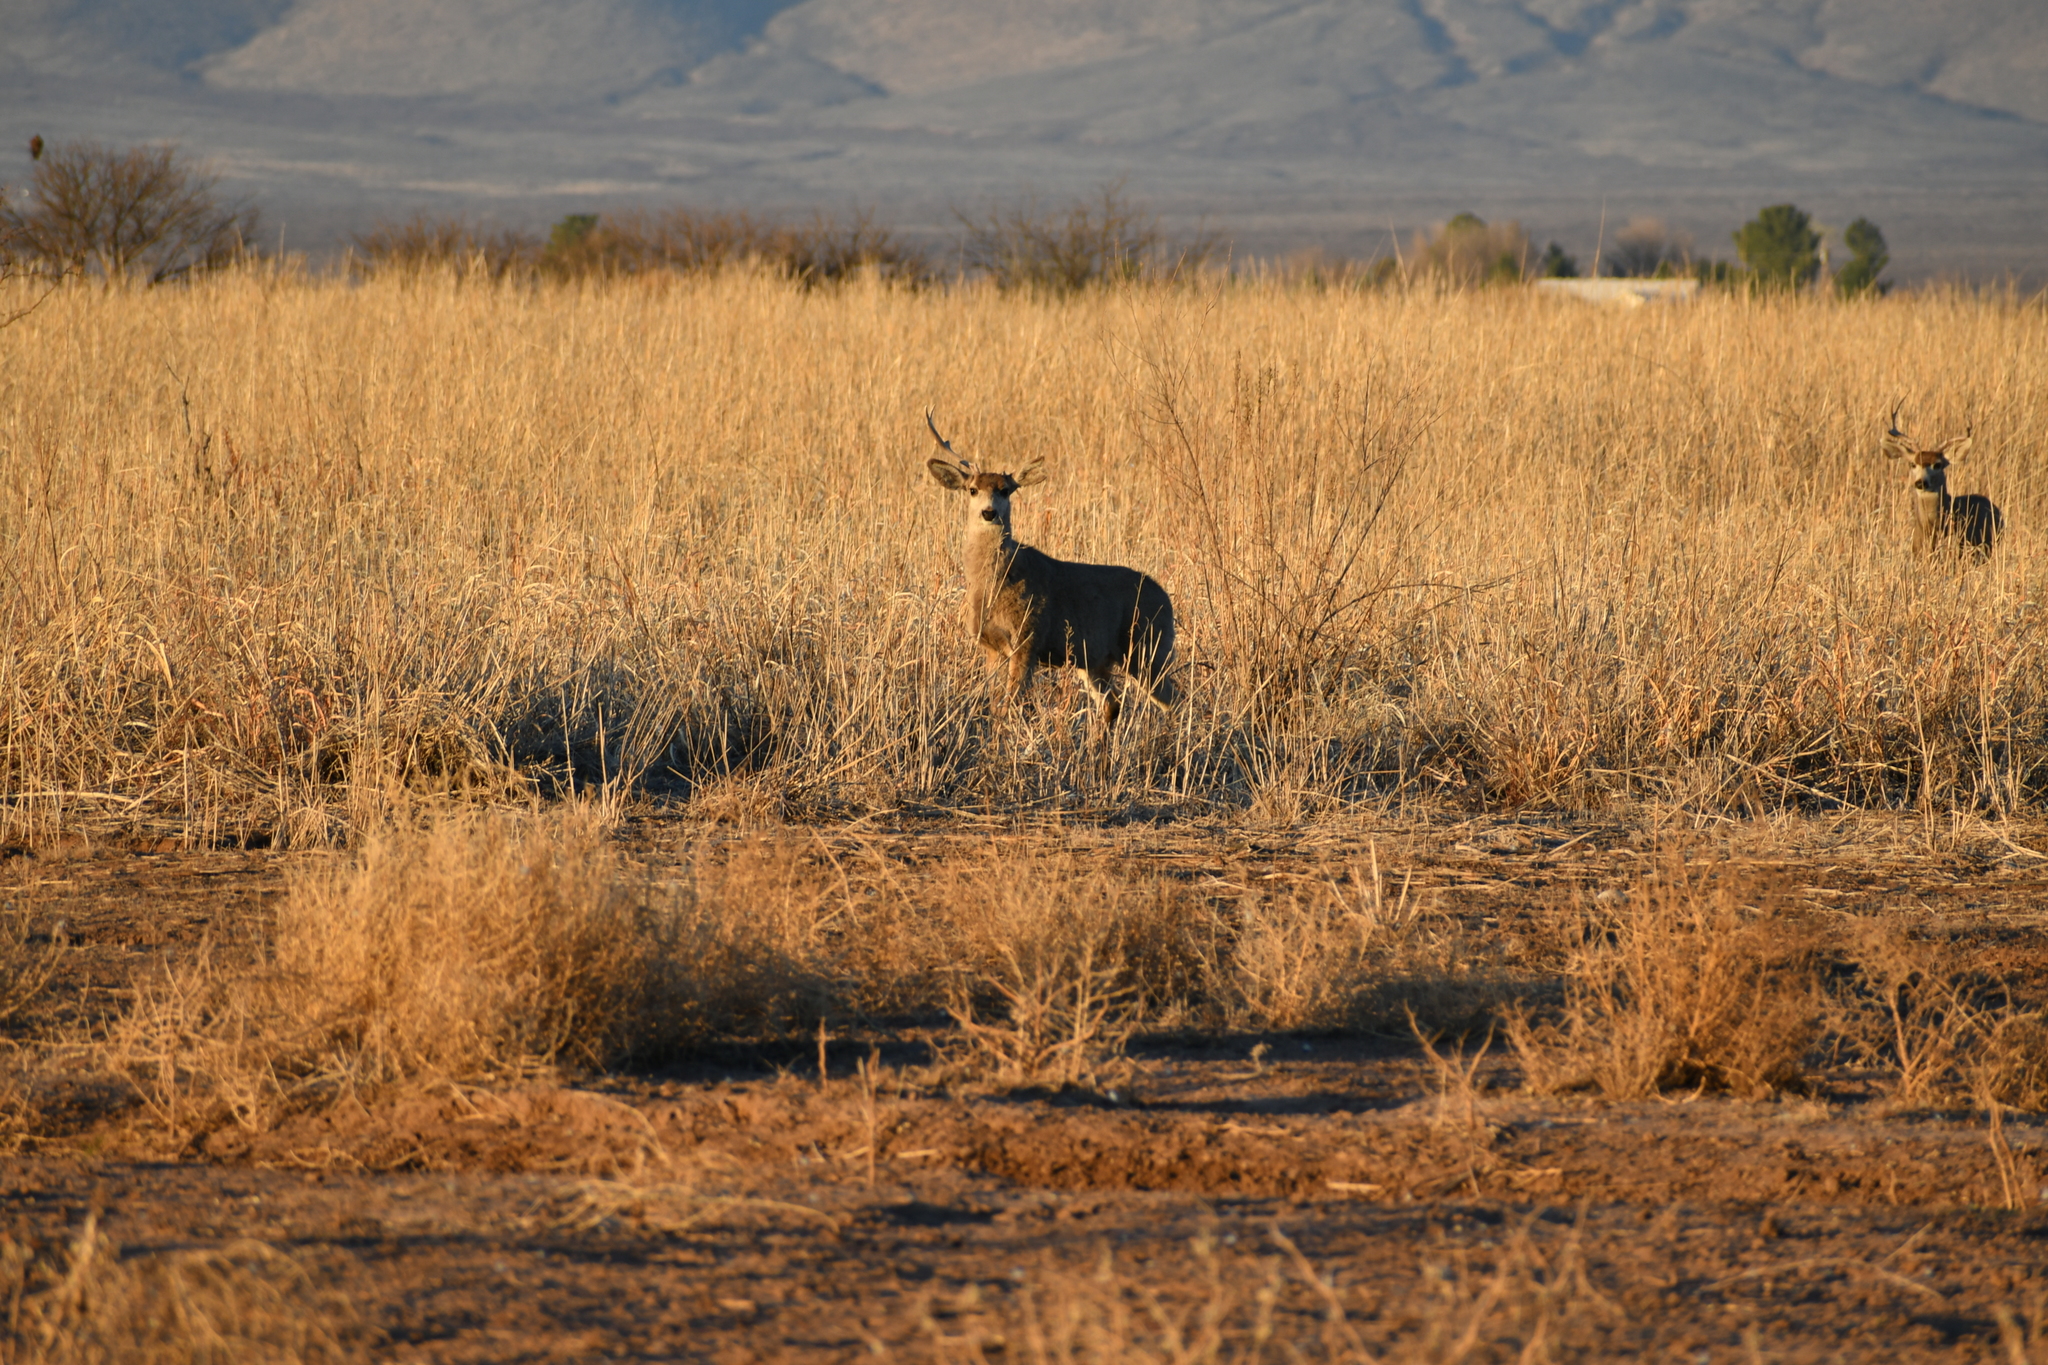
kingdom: Animalia
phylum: Chordata
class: Mammalia
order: Artiodactyla
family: Cervidae
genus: Odocoileus
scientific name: Odocoileus hemionus
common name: Mule deer
